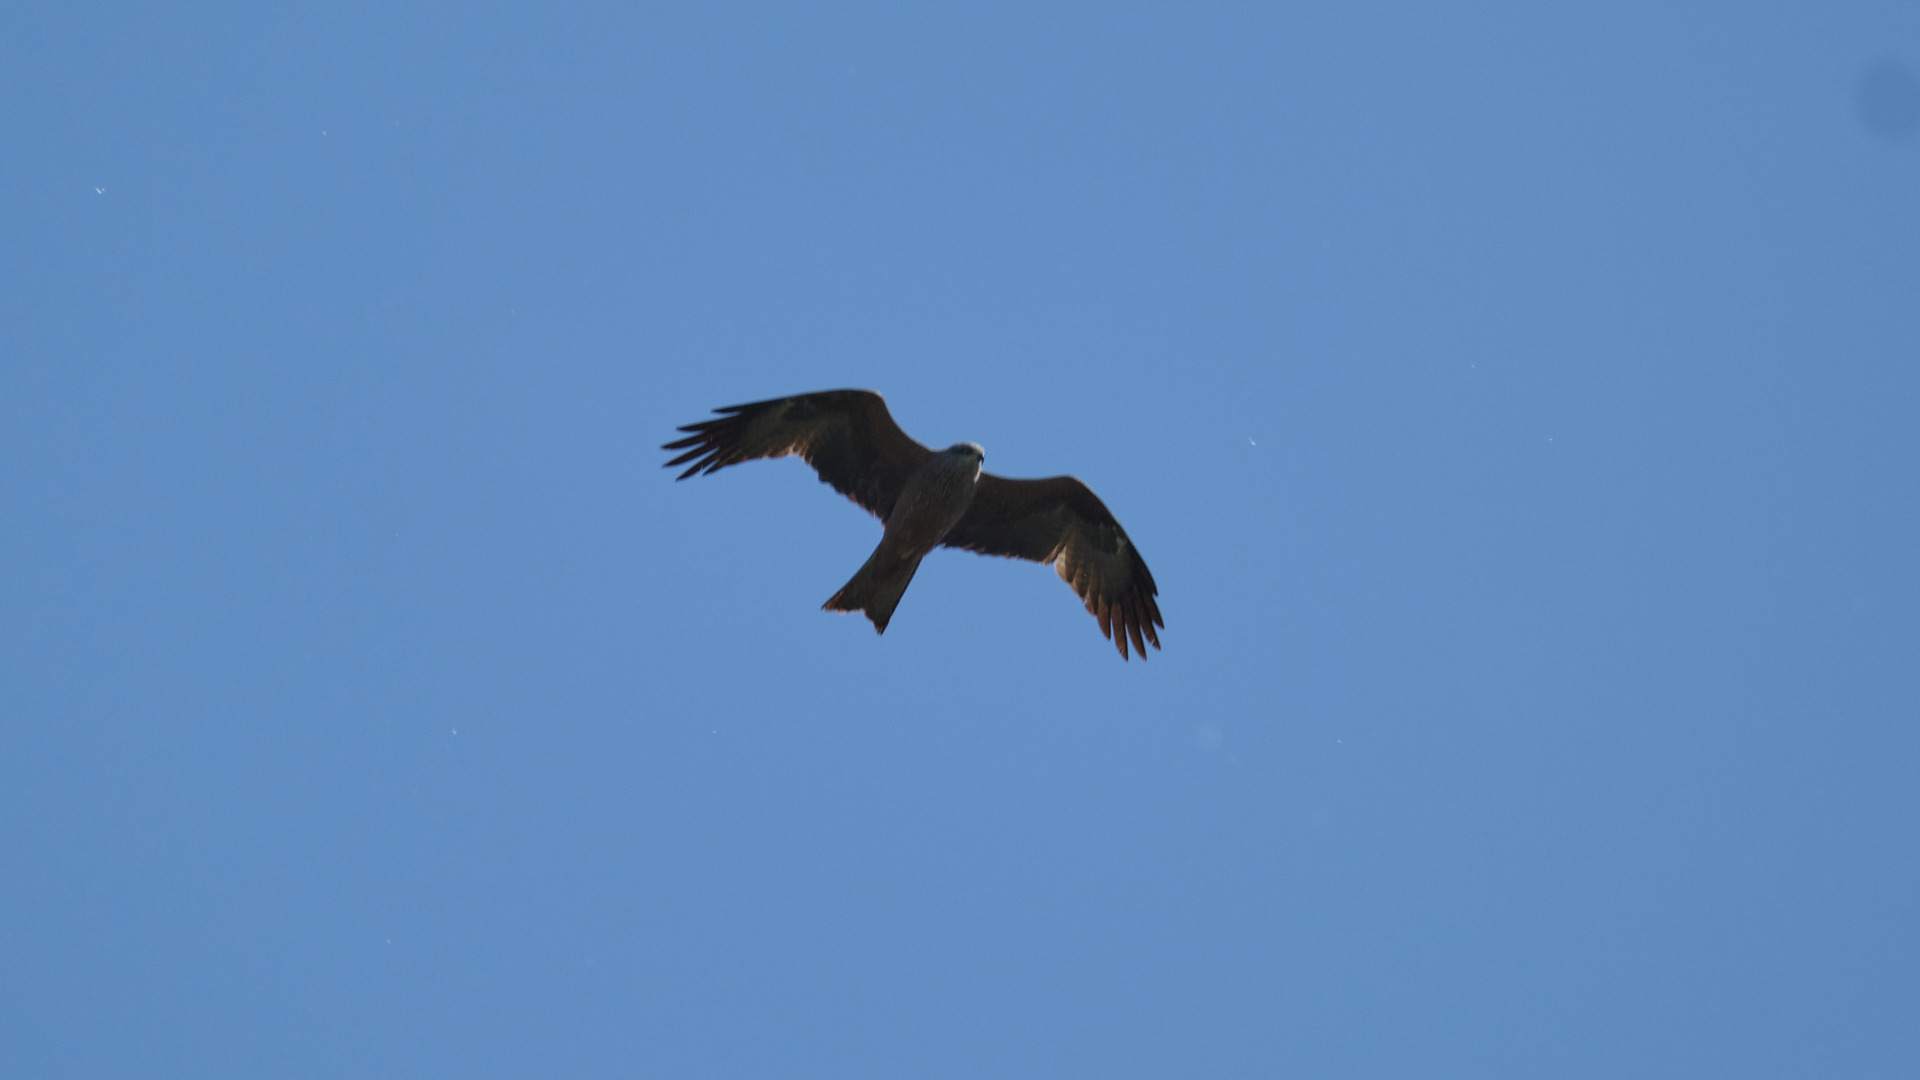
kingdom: Animalia
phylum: Chordata
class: Aves
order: Accipitriformes
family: Accipitridae
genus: Milvus
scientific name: Milvus migrans
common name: Black kite
